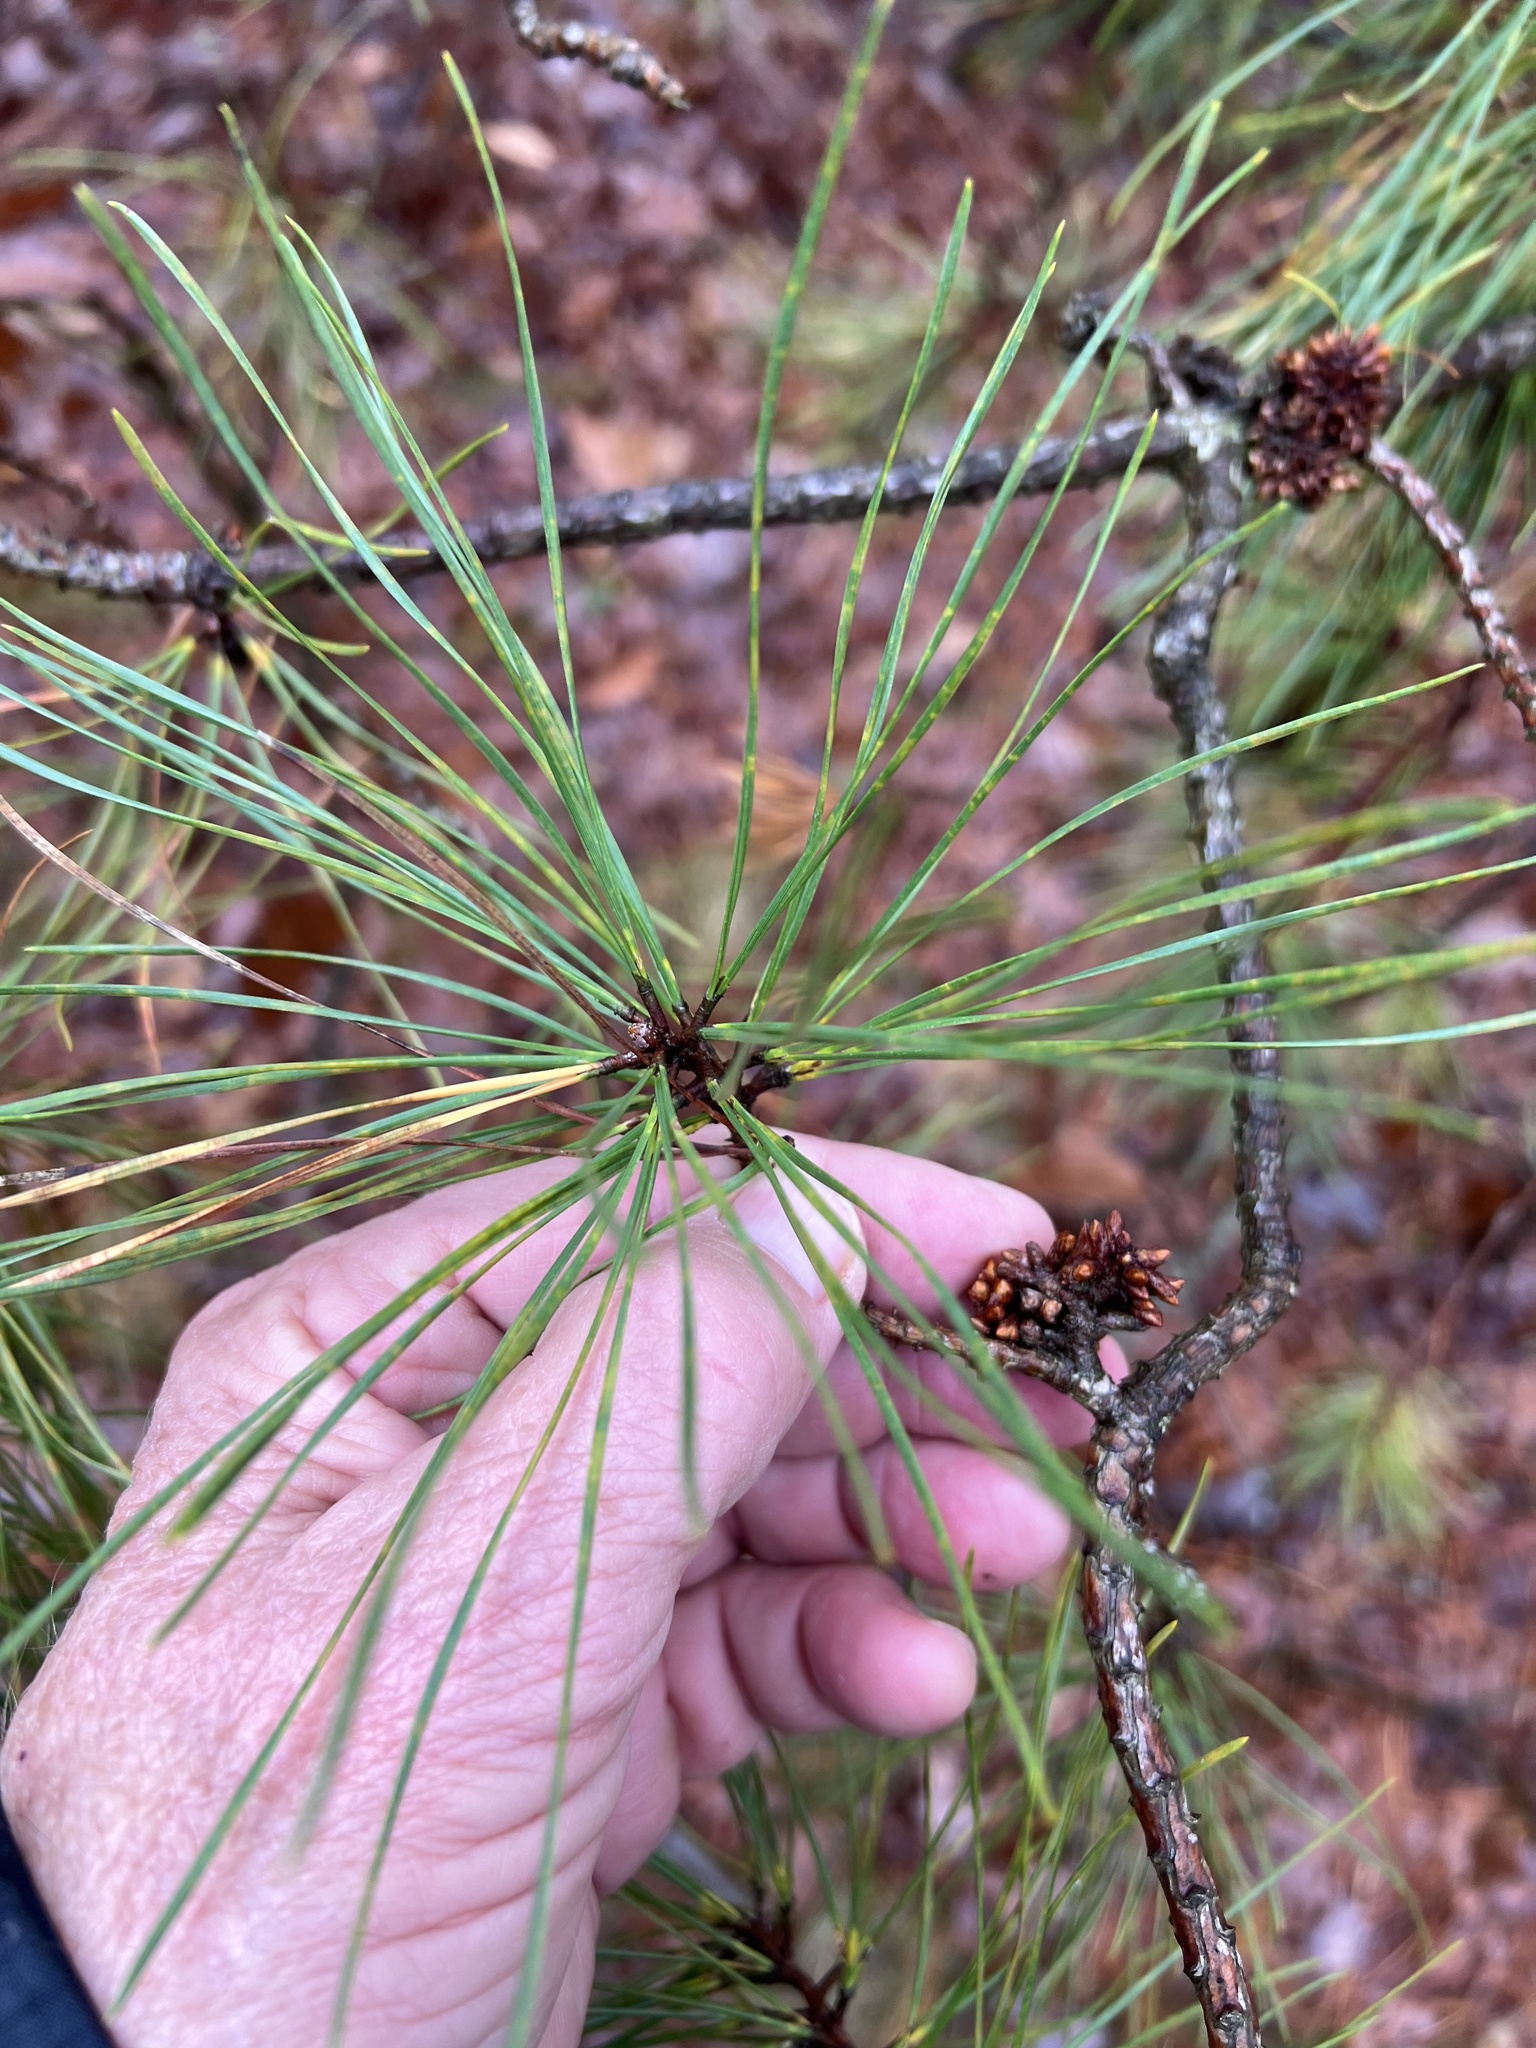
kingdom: Plantae
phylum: Tracheophyta
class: Pinopsida
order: Pinales
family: Pinaceae
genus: Pinus
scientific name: Pinus rigida
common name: Pitch pine
